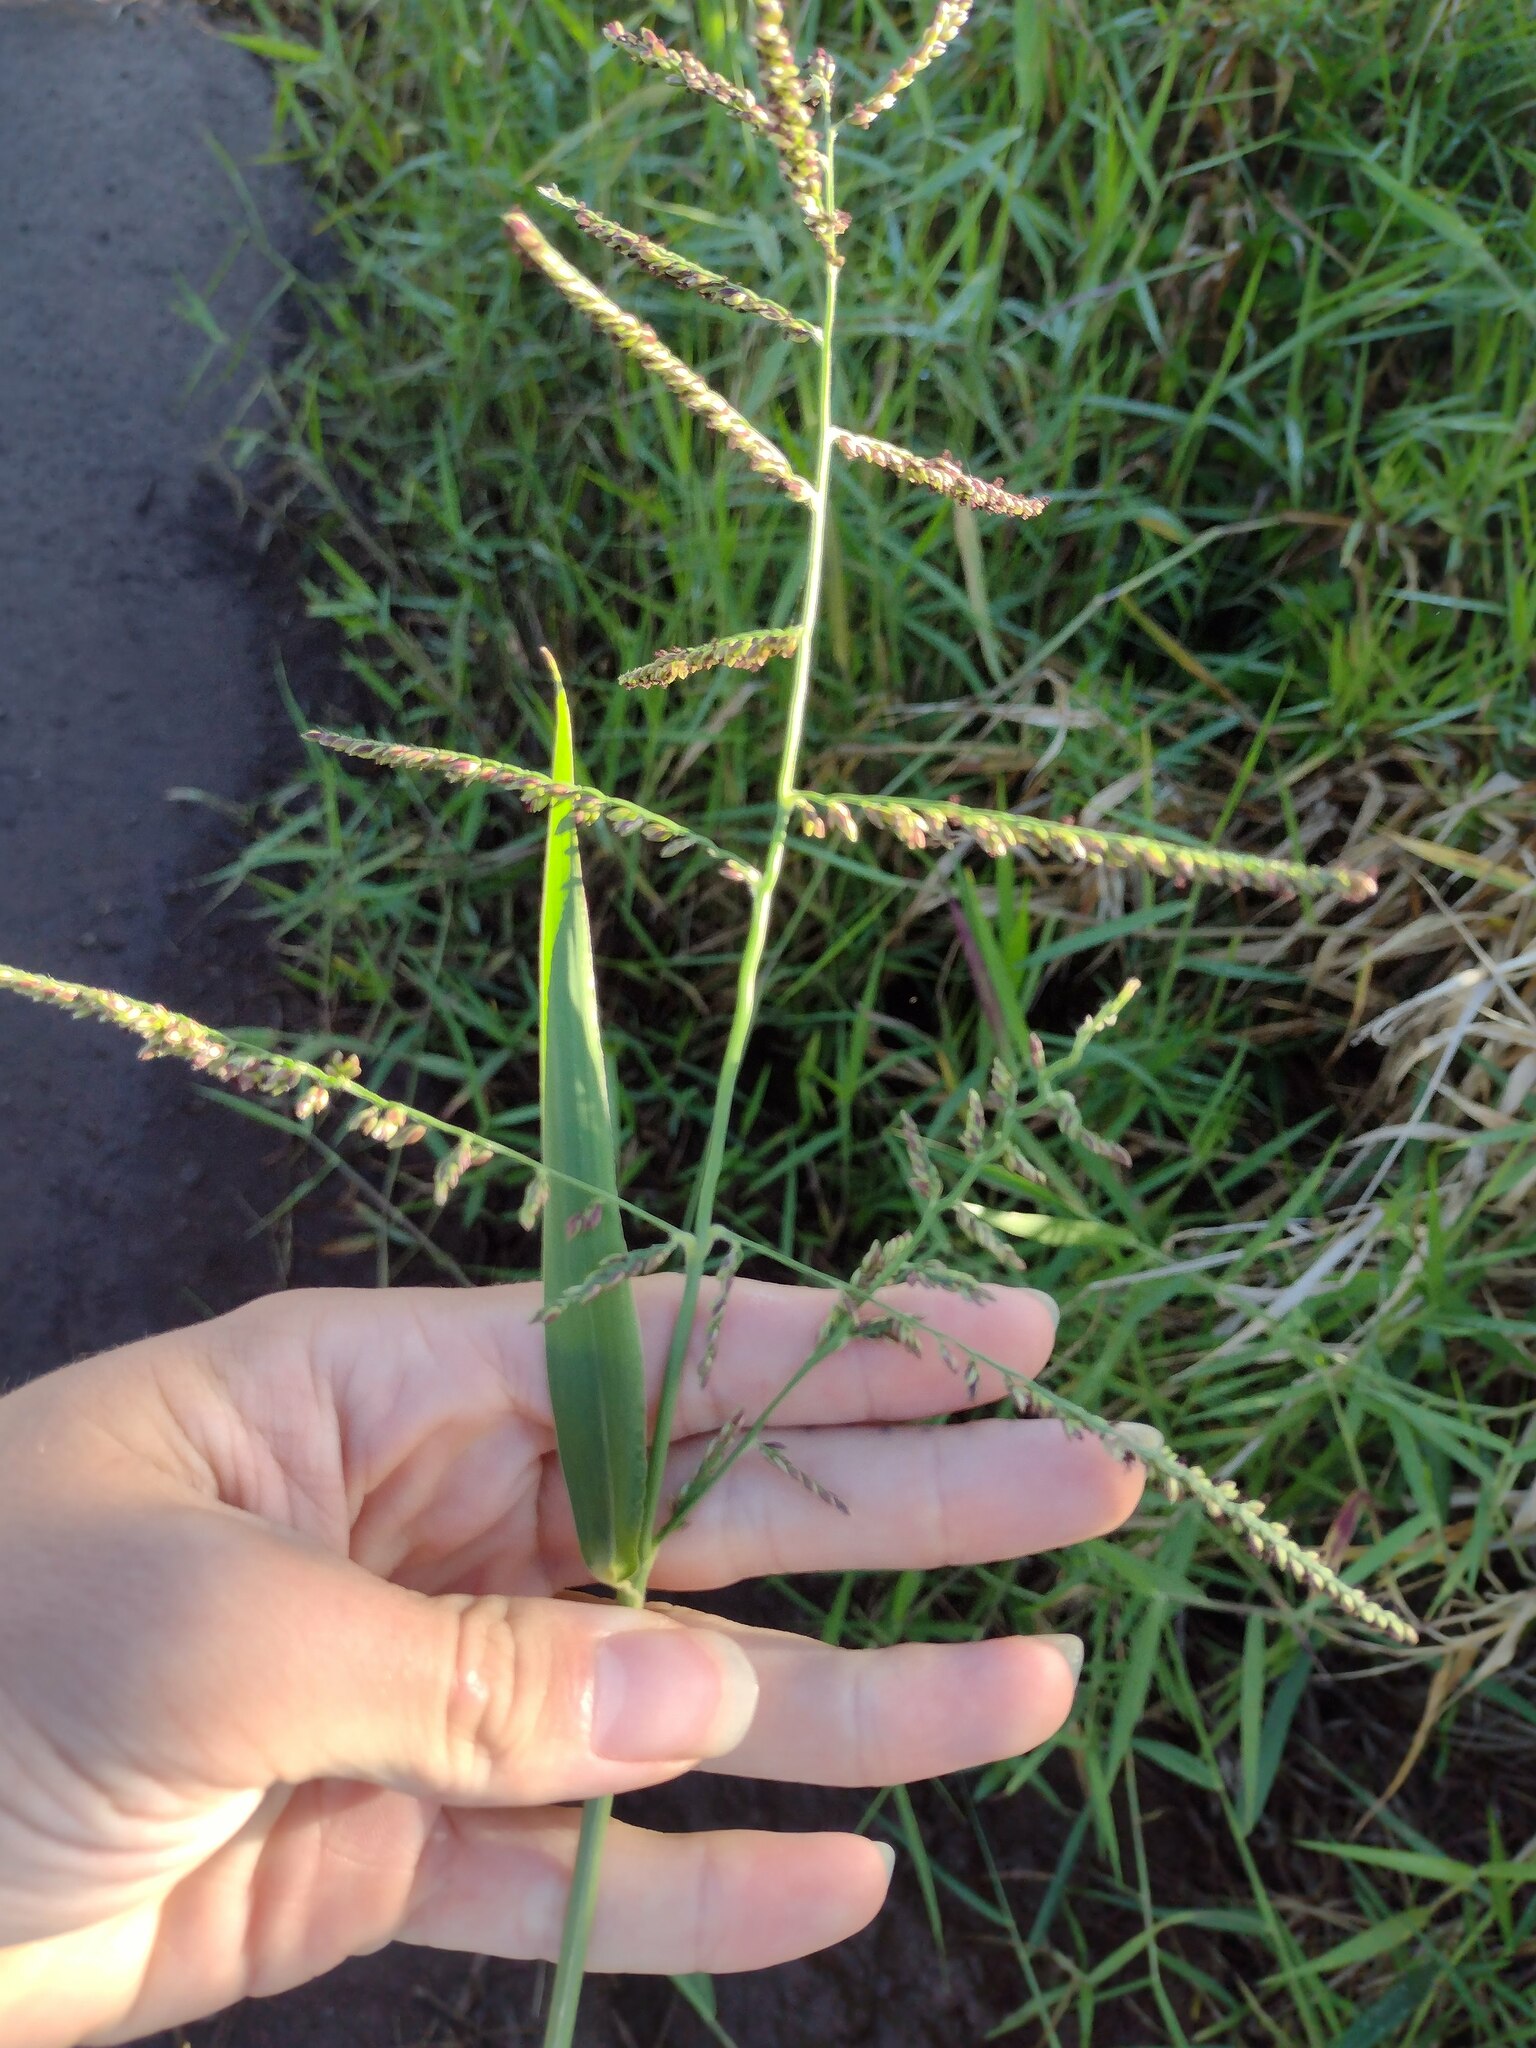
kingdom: Plantae
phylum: Tracheophyta
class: Liliopsida
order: Poales
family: Poaceae
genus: Urochloa
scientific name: Urochloa mutica
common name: Para grass
